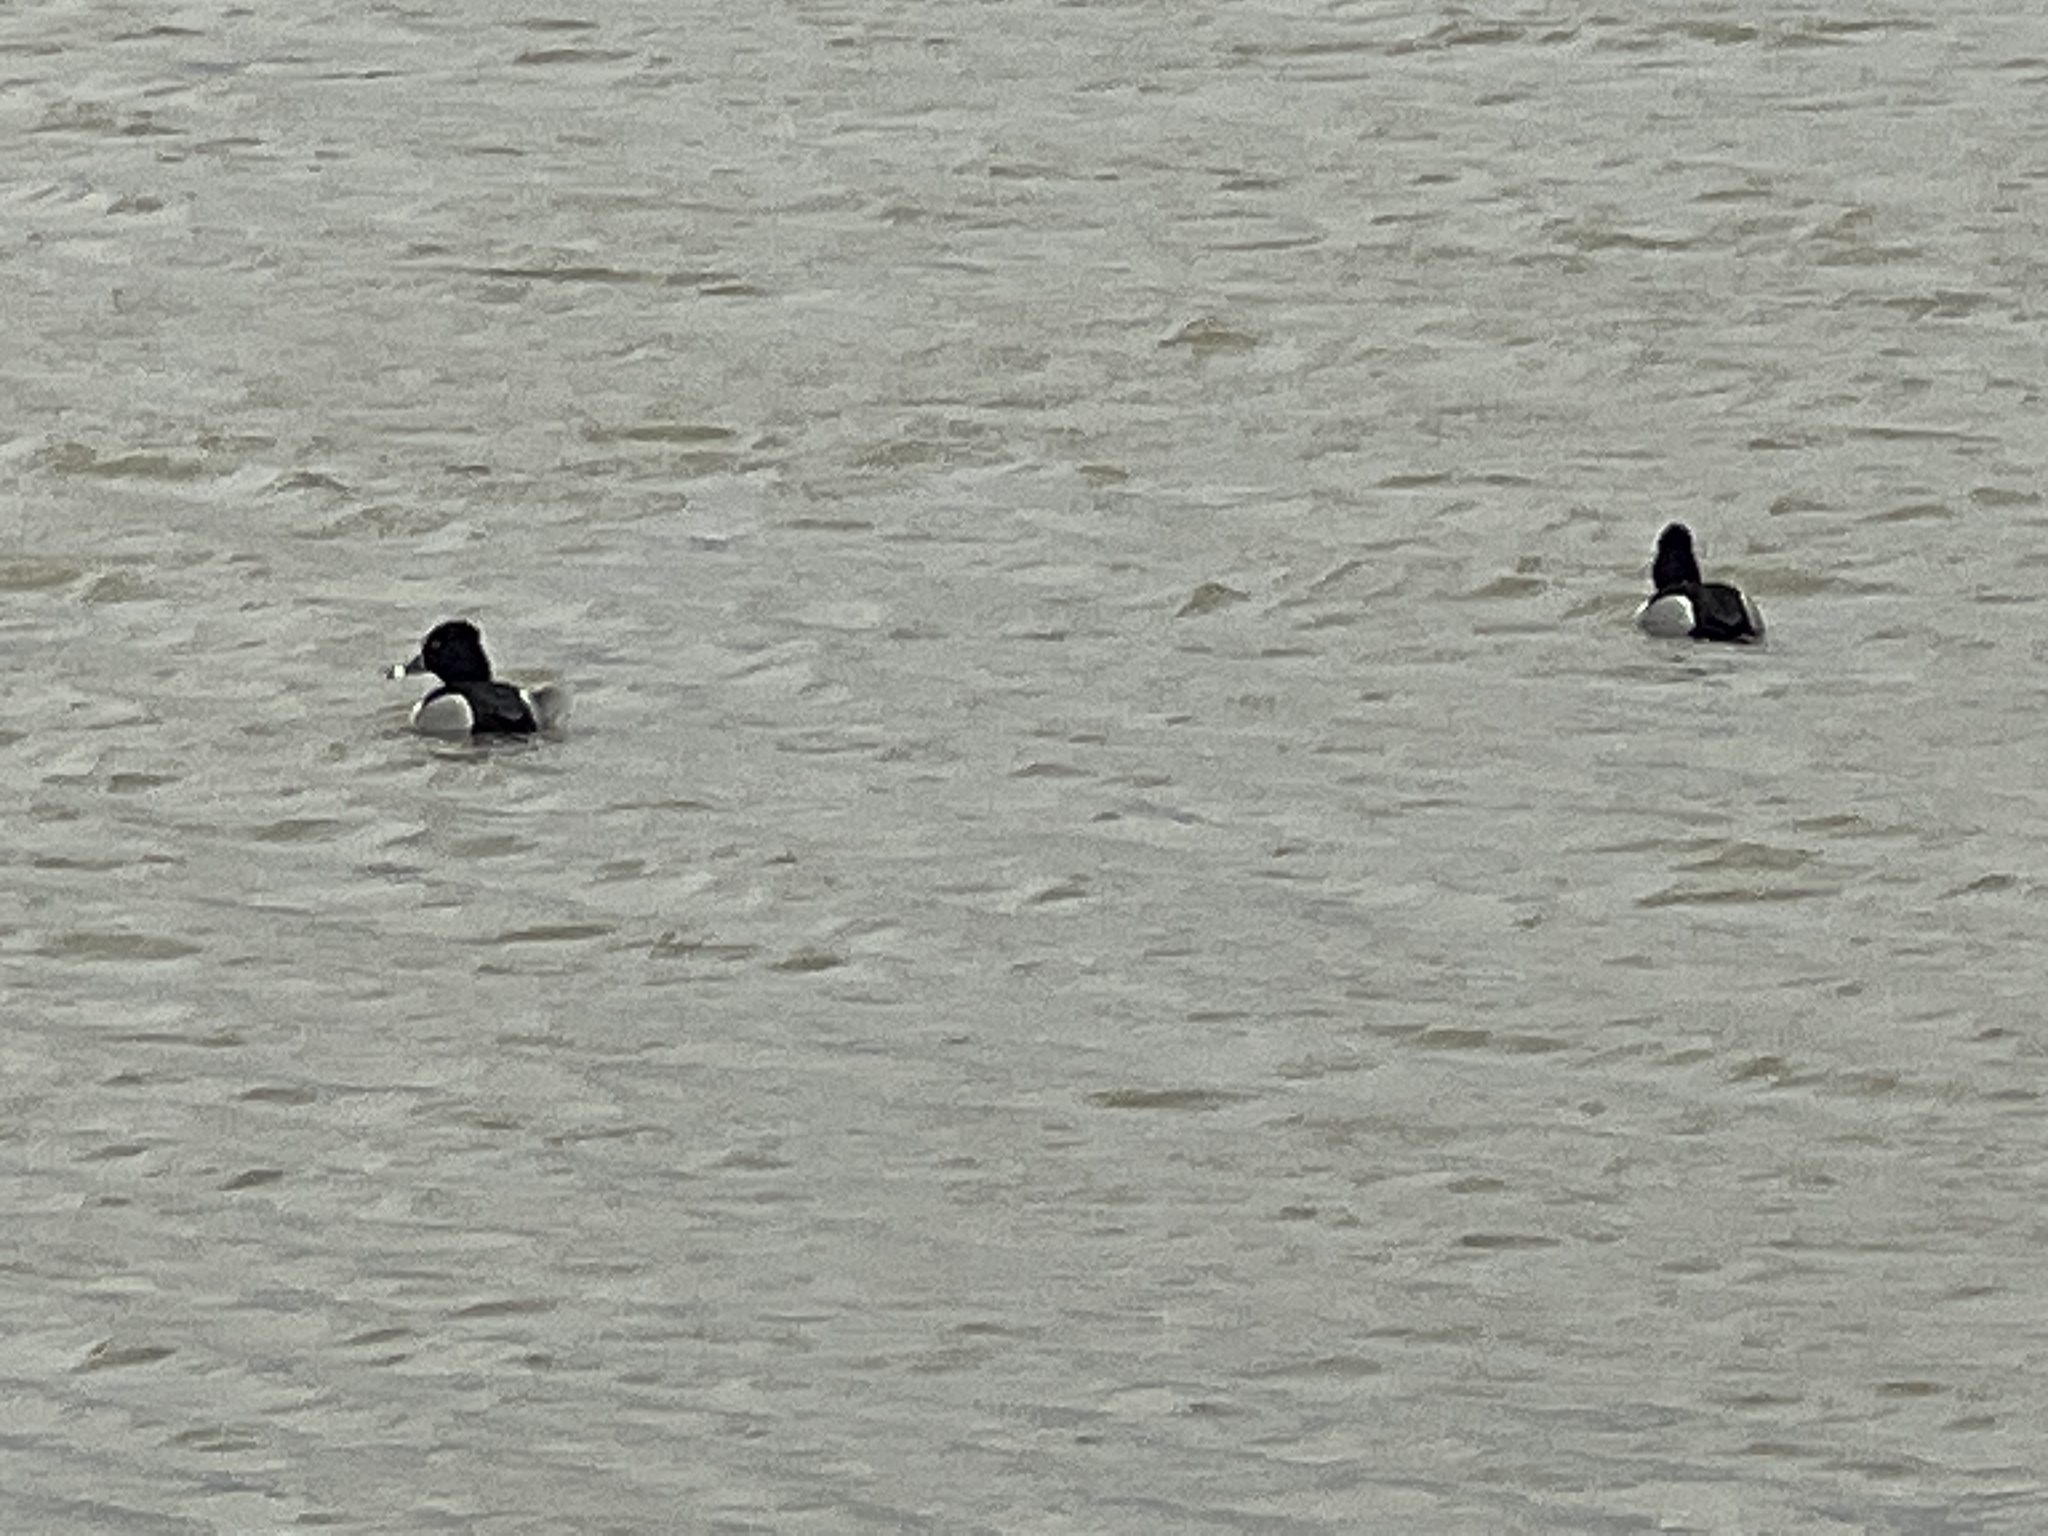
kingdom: Animalia
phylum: Chordata
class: Aves
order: Anseriformes
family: Anatidae
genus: Aythya
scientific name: Aythya collaris
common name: Ring-necked duck
